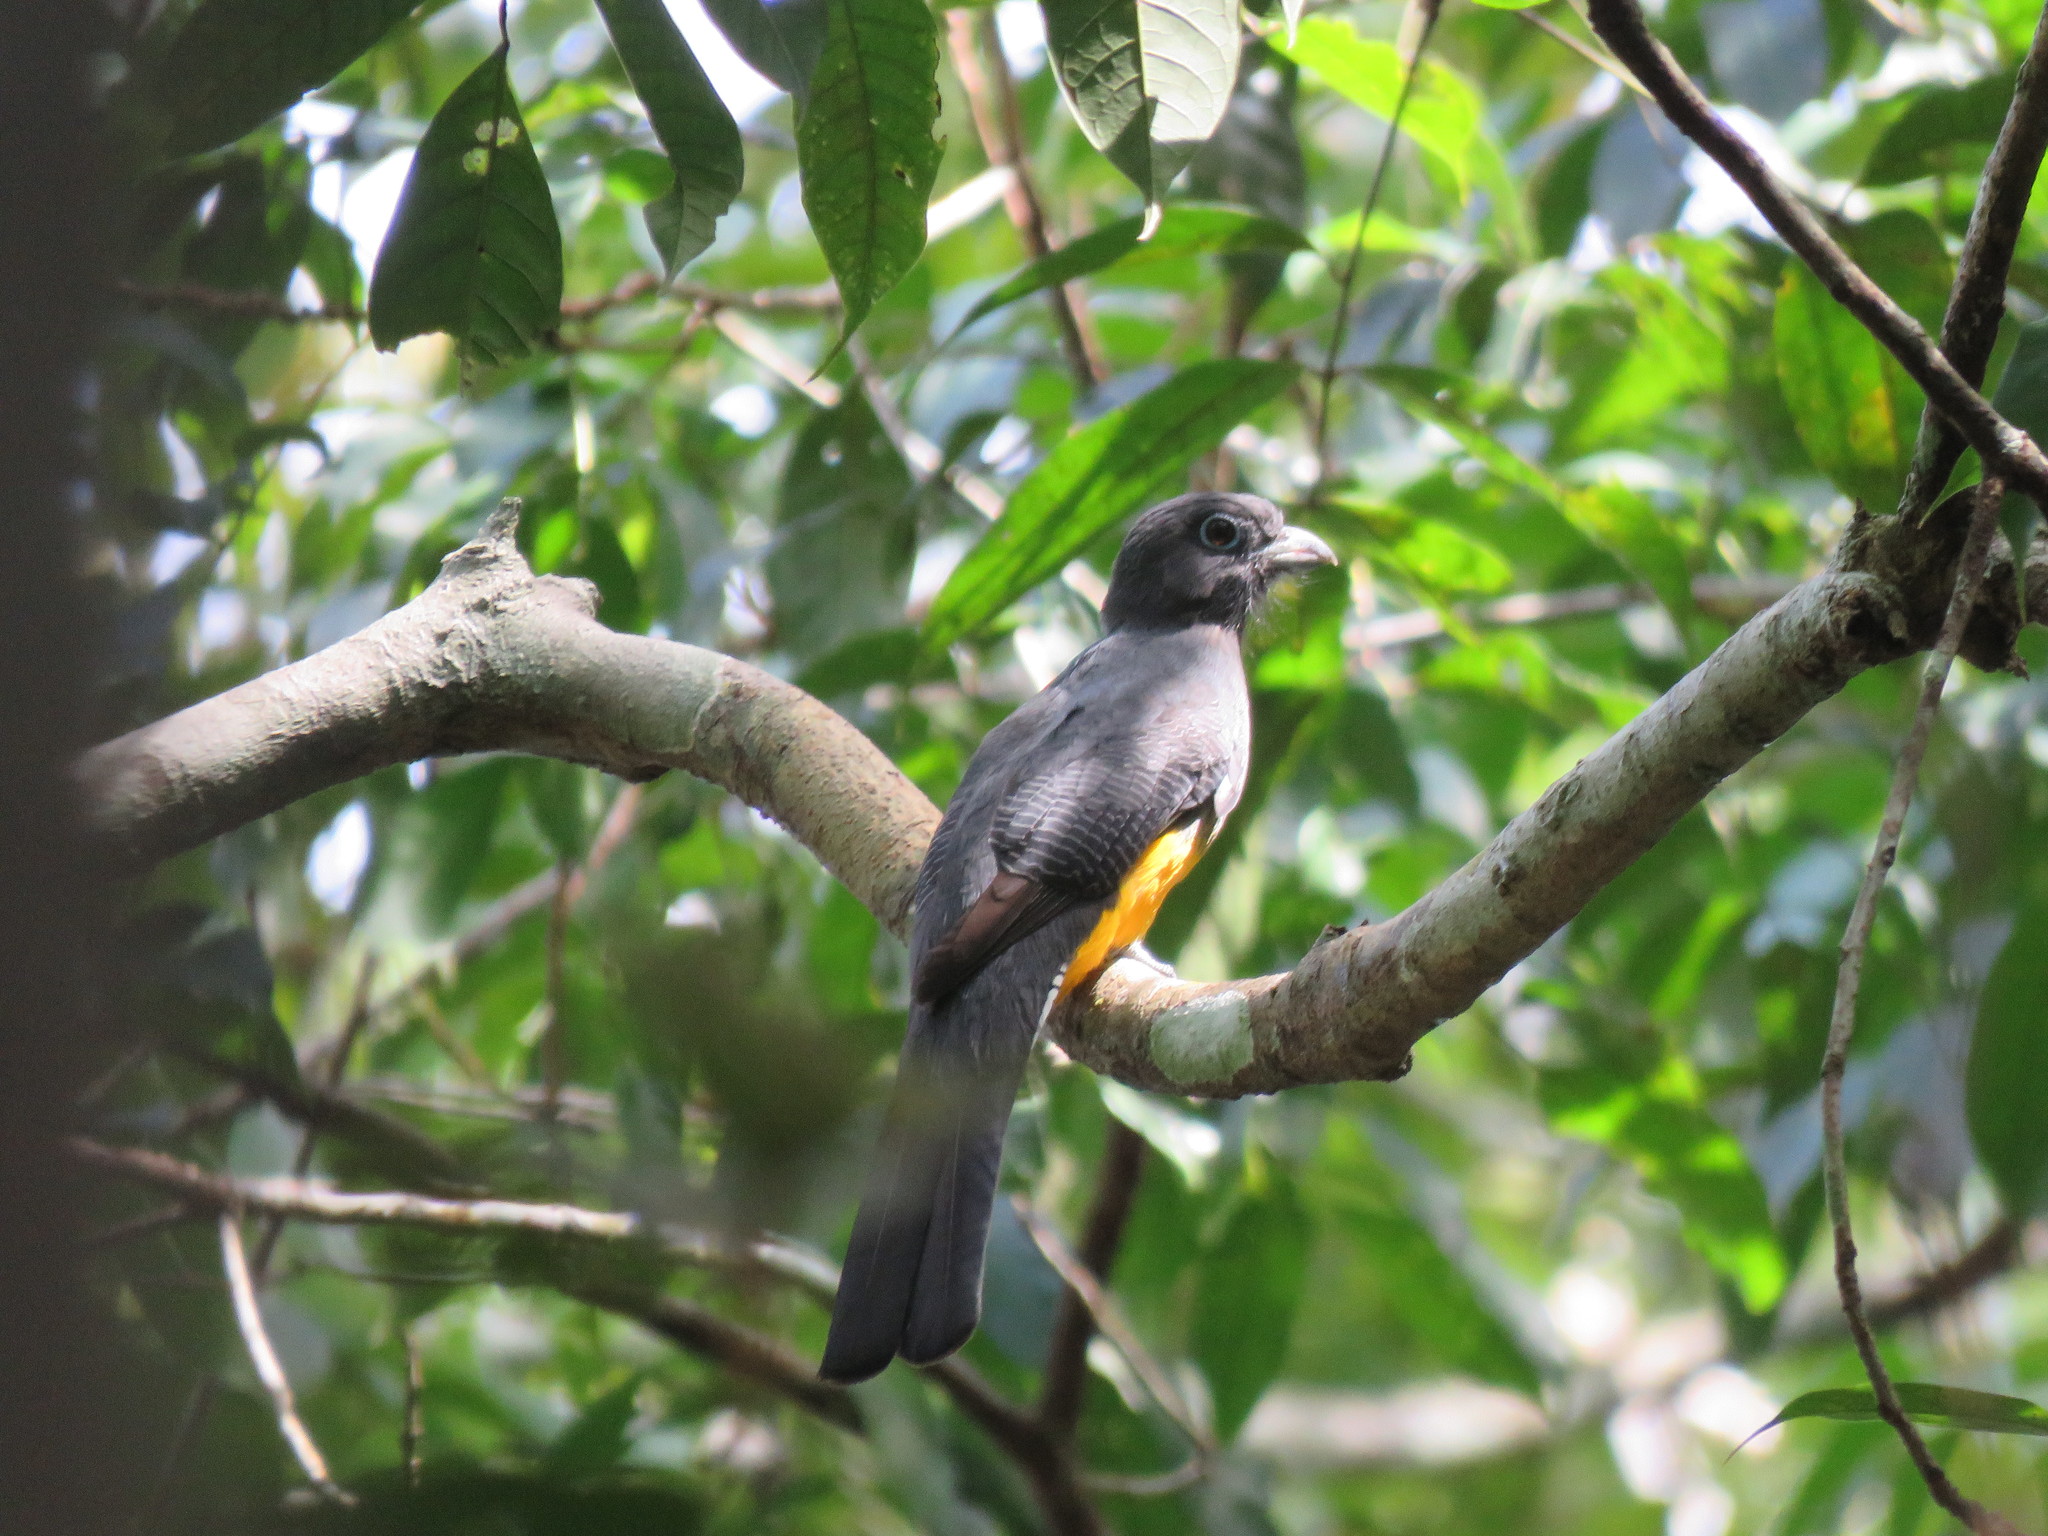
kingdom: Animalia
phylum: Chordata
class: Aves
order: Trogoniformes
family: Trogonidae
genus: Trogon
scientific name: Trogon viridis
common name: Green-backed trogon
